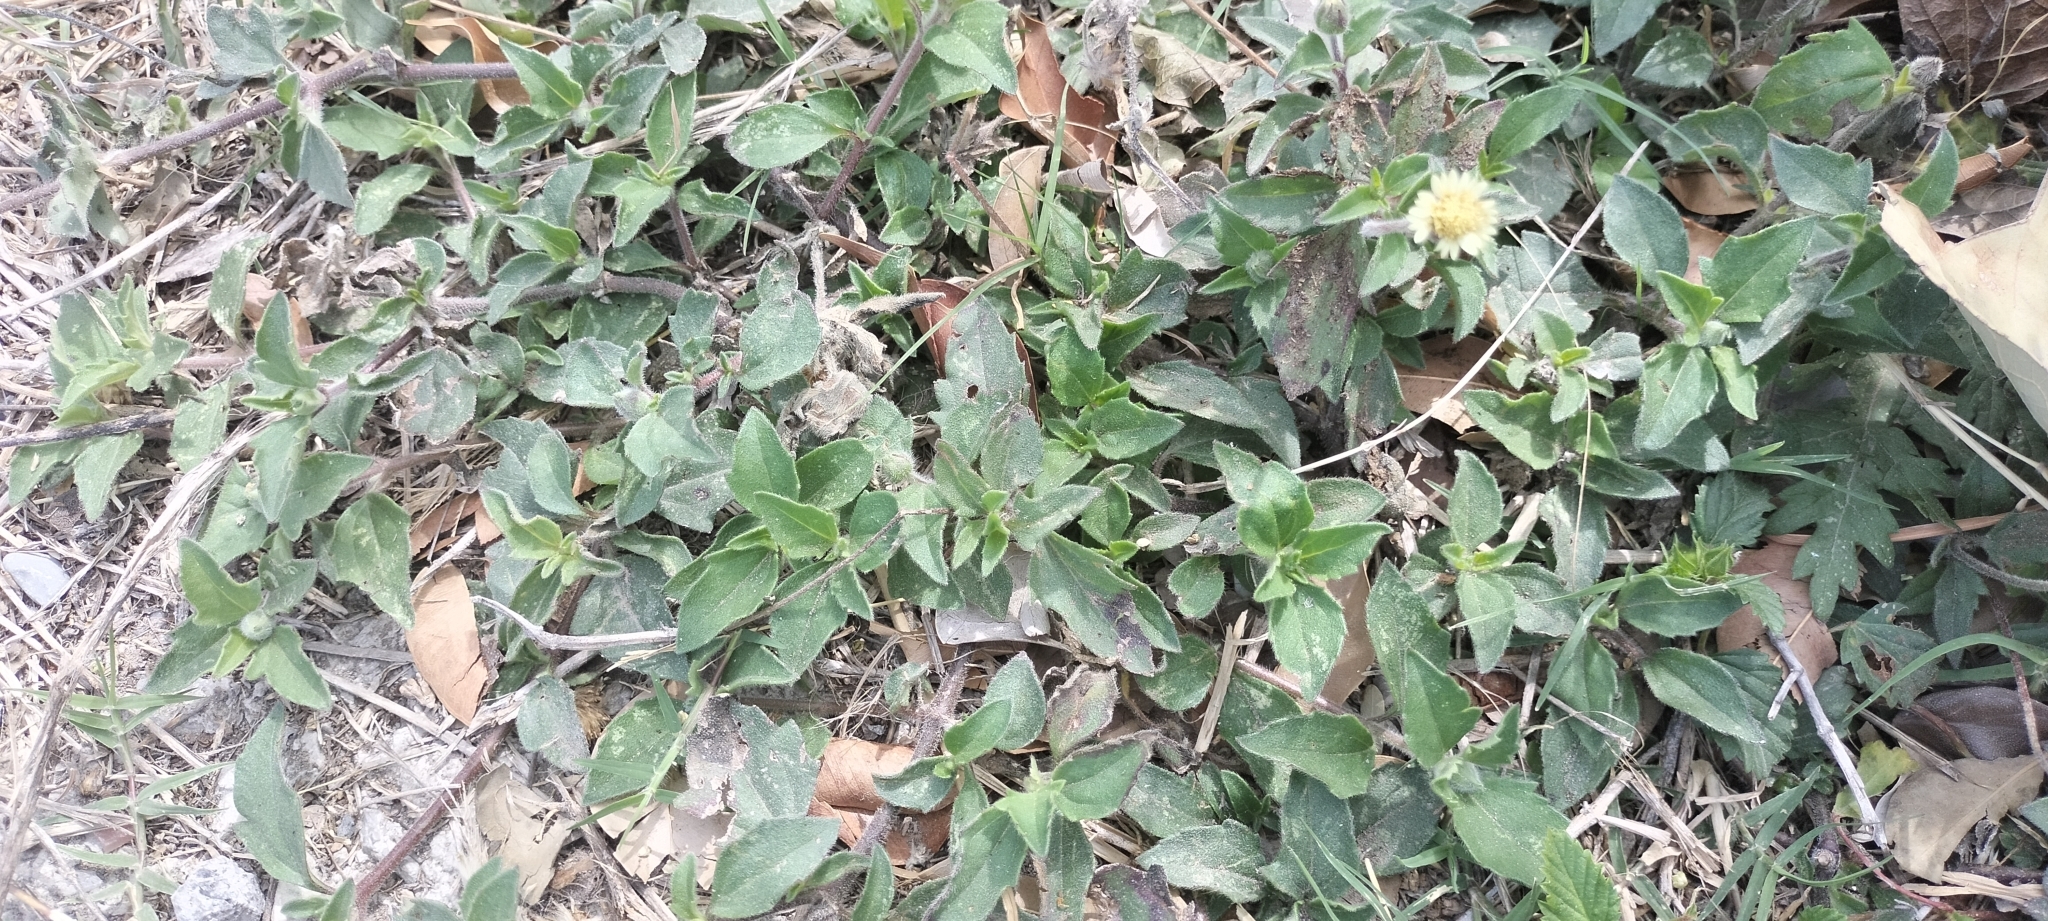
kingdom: Plantae
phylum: Tracheophyta
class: Magnoliopsida
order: Asterales
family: Asteraceae
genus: Tridax
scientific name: Tridax procumbens
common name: Coatbuttons
